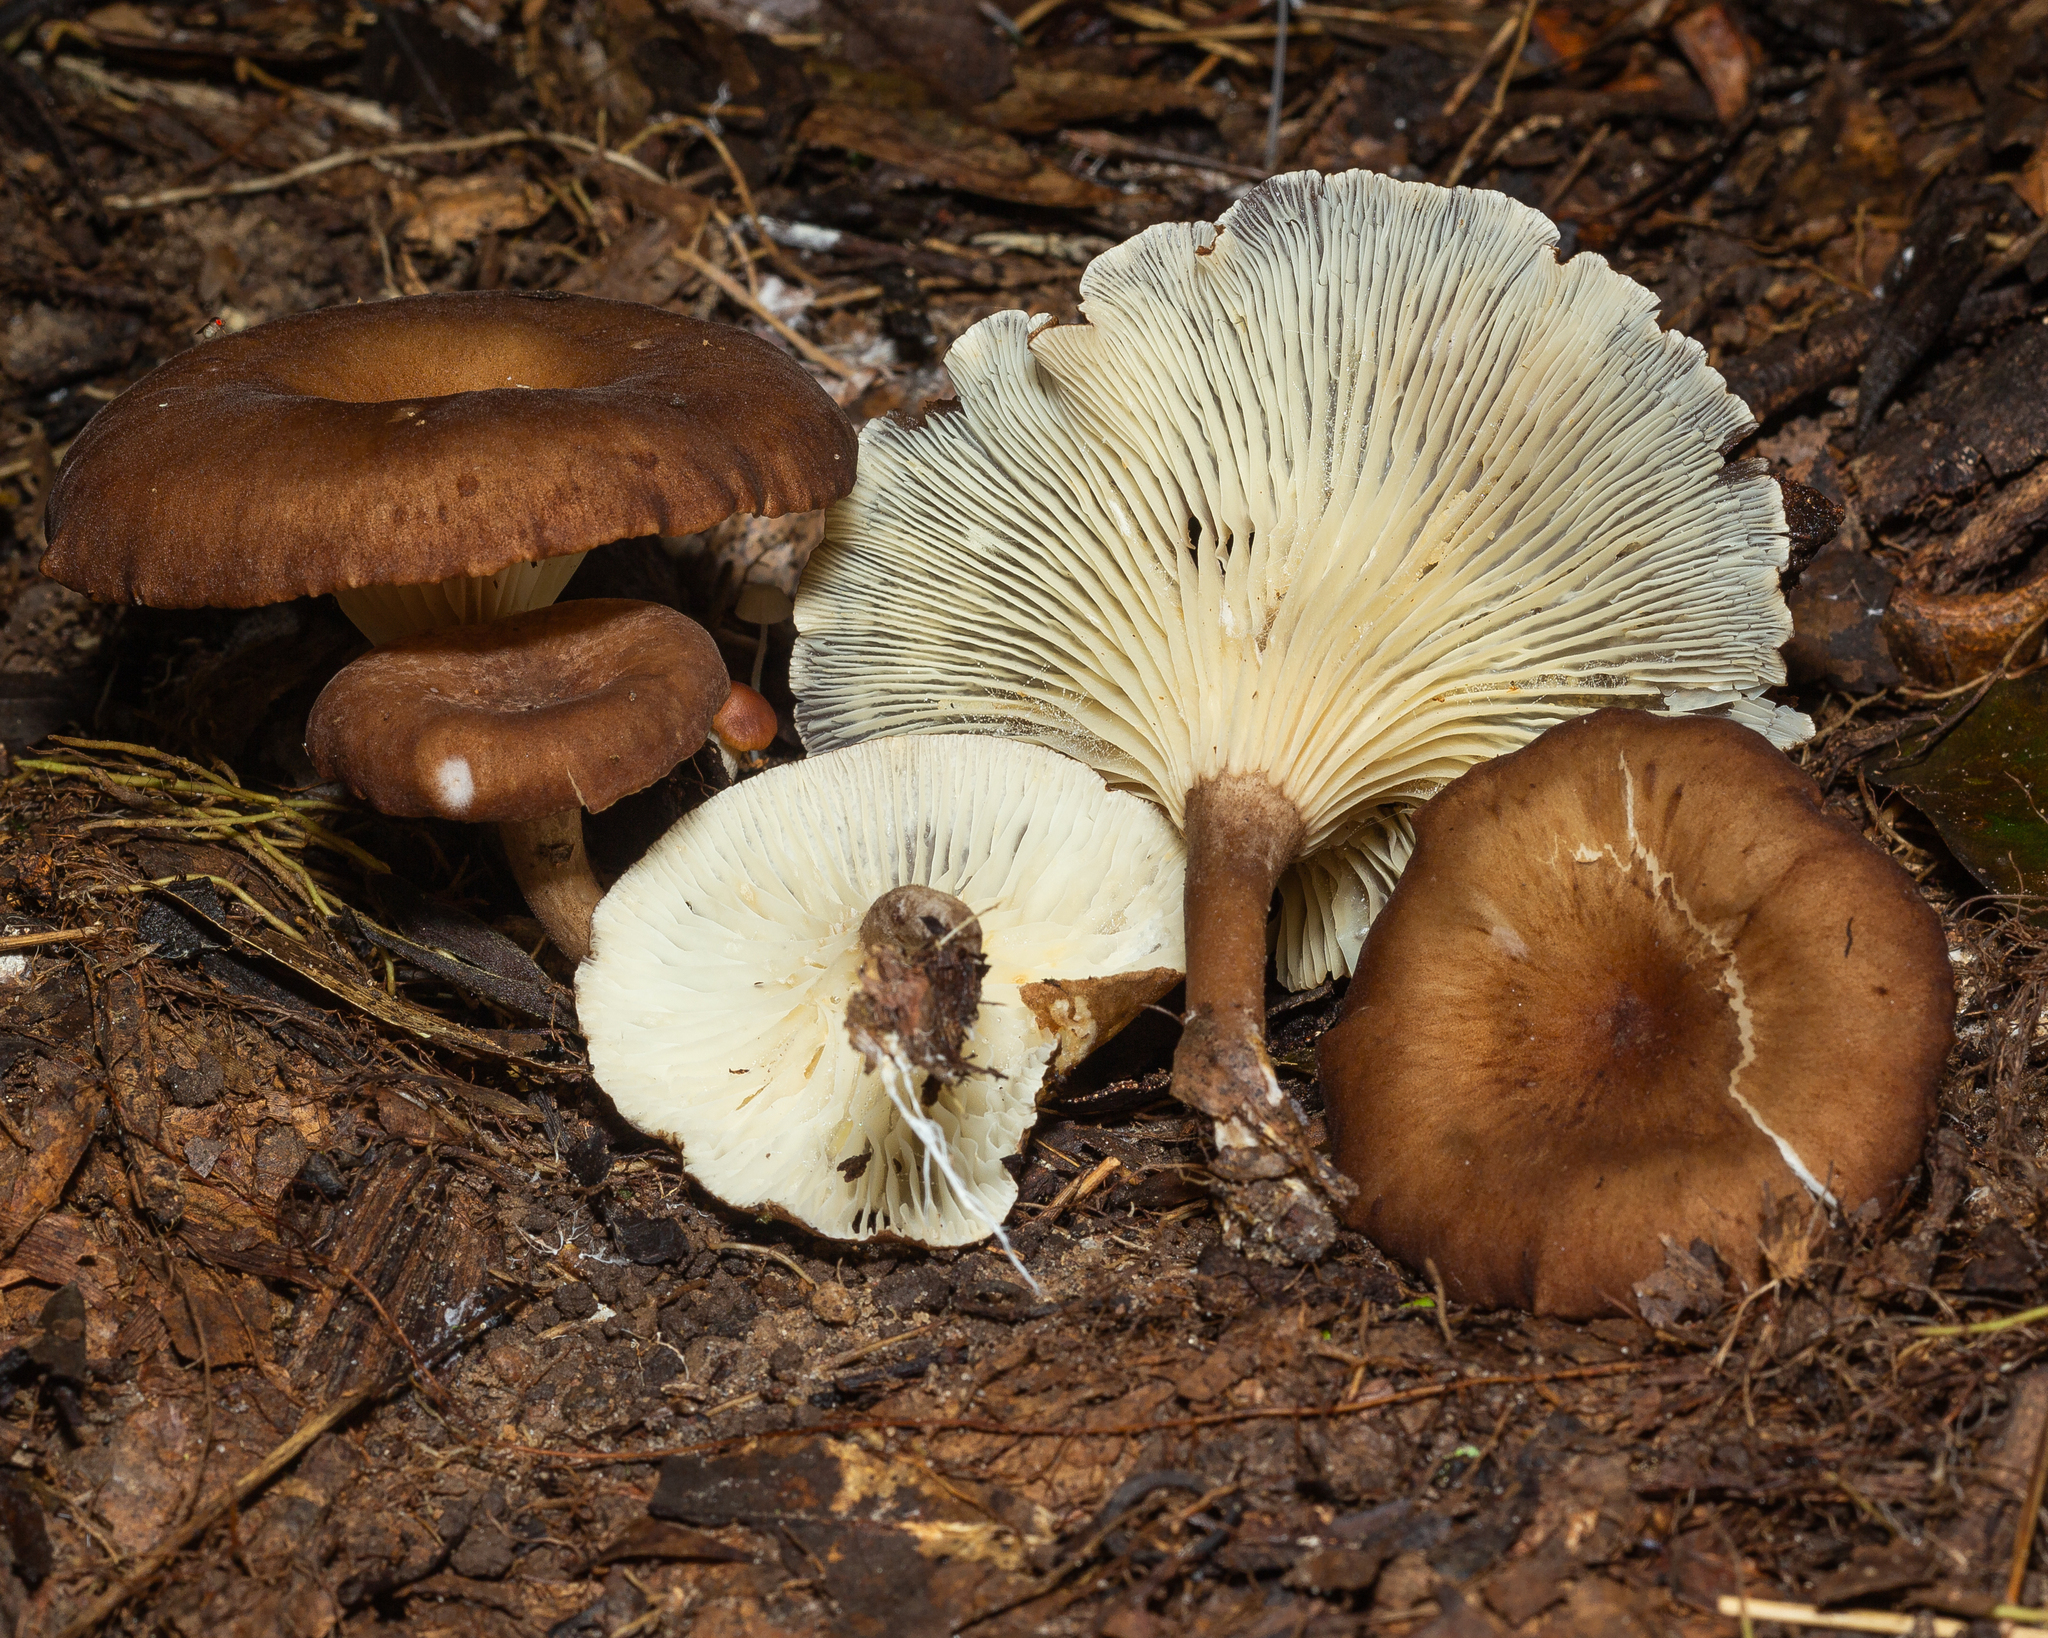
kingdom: Fungi
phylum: Basidiomycota
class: Agaricomycetes
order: Agaricales
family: Tricholomataceae
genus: Lulesia
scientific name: Lulesia densifolia
